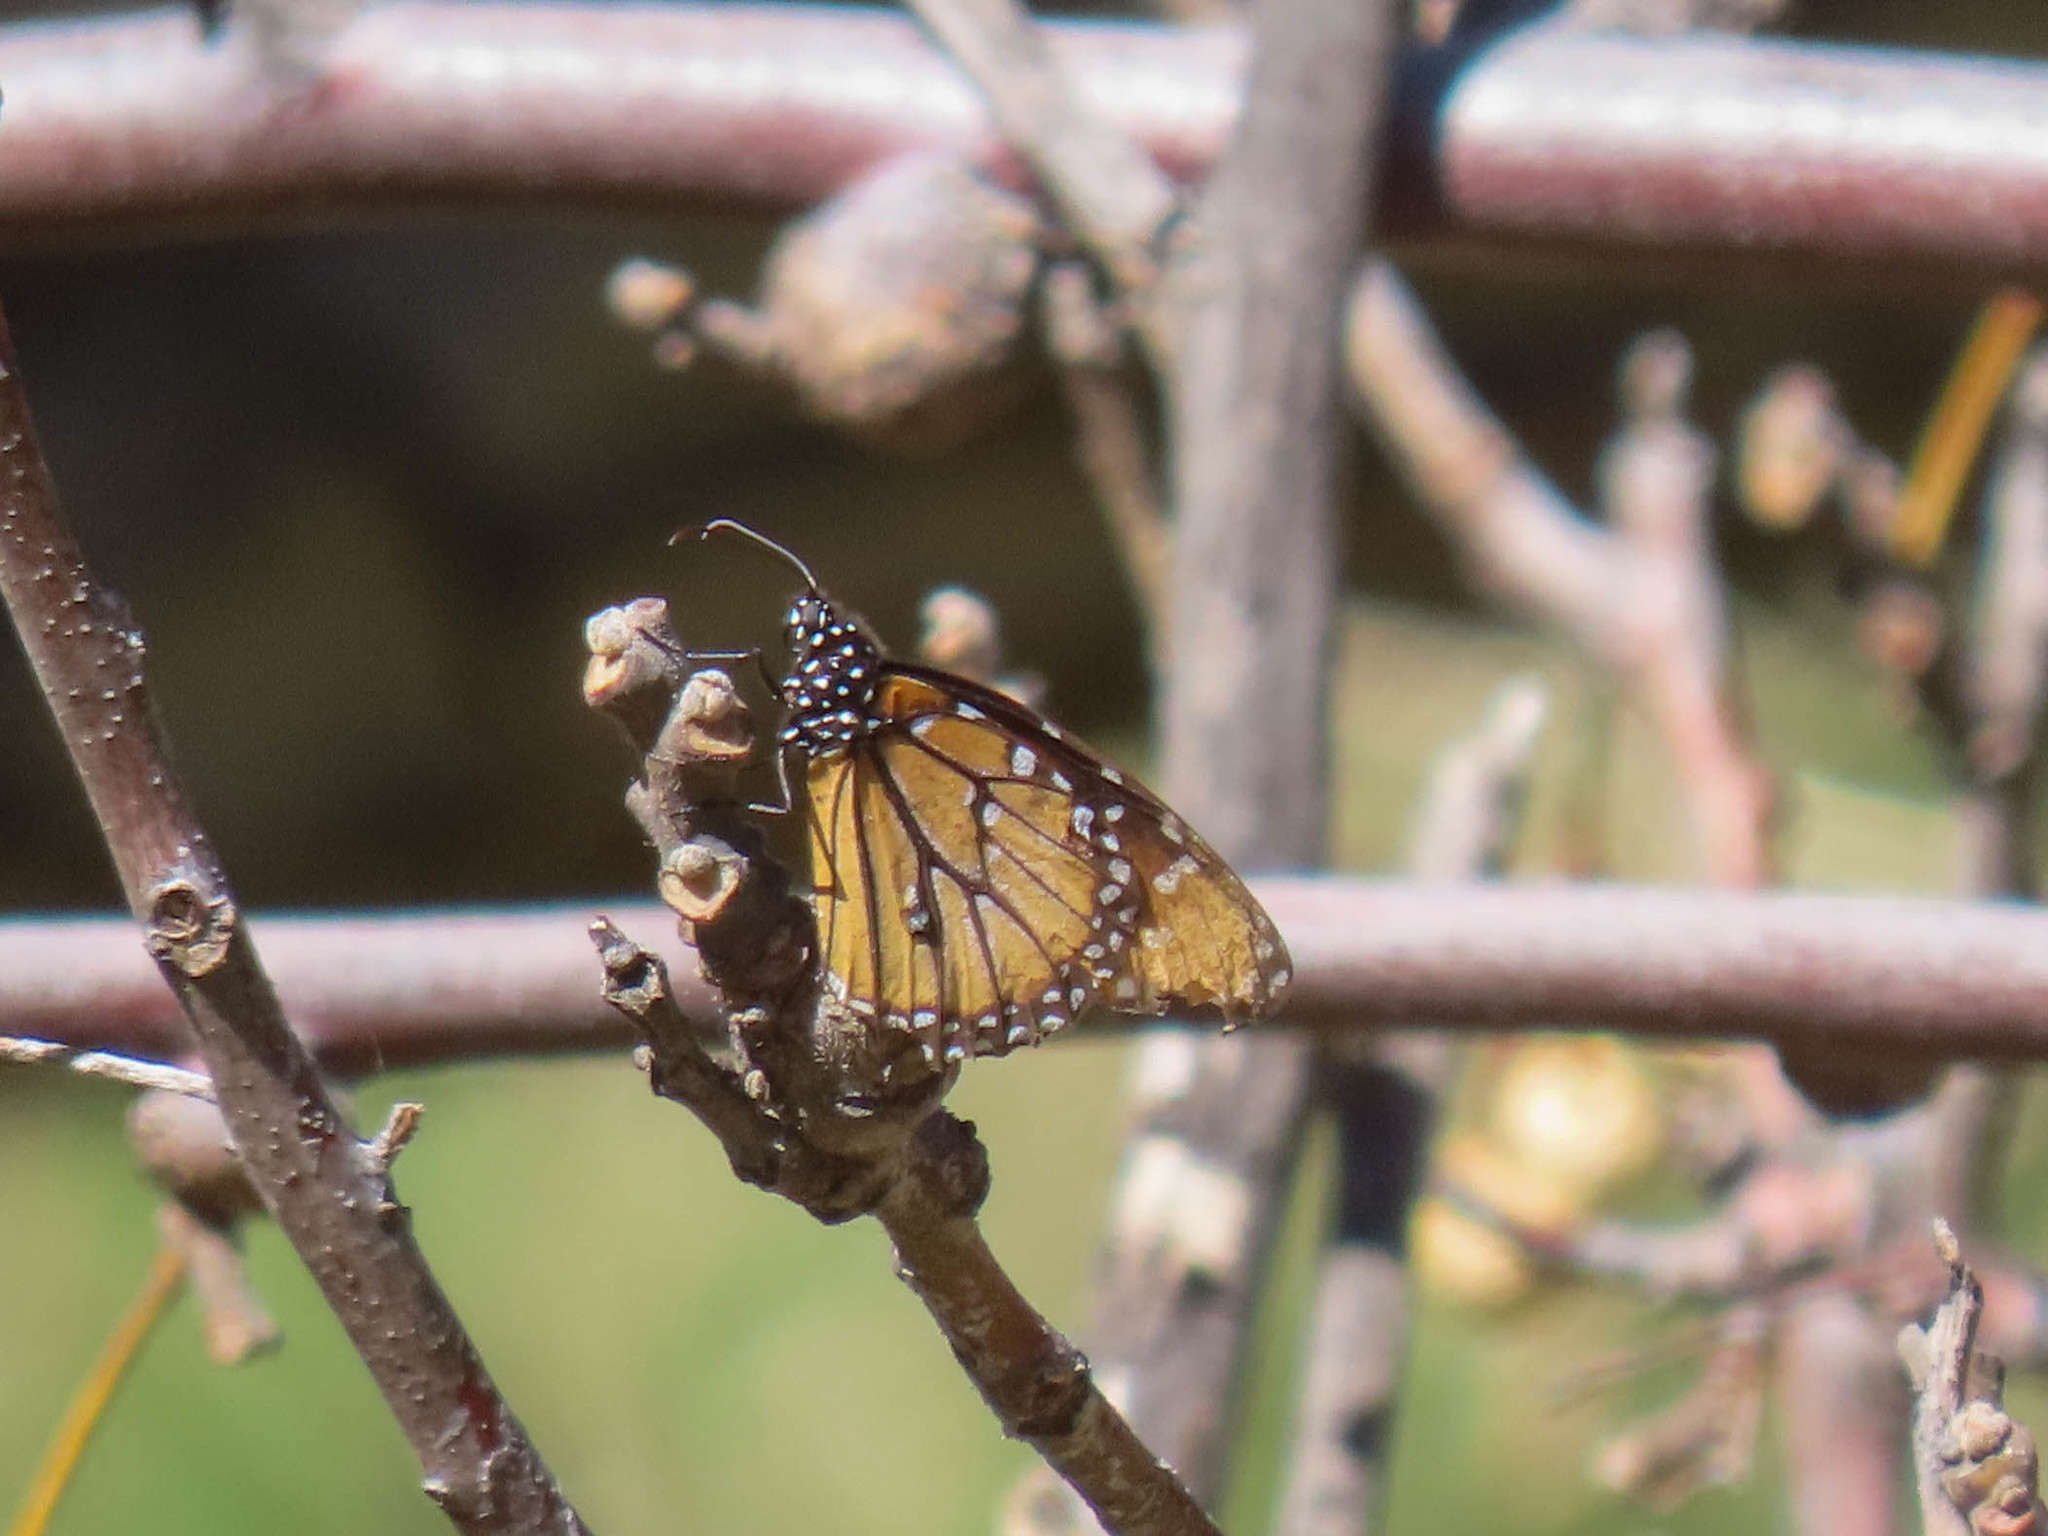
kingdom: Animalia
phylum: Arthropoda
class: Insecta
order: Lepidoptera
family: Nymphalidae
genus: Danaus
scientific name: Danaus gilippus
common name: Queen
